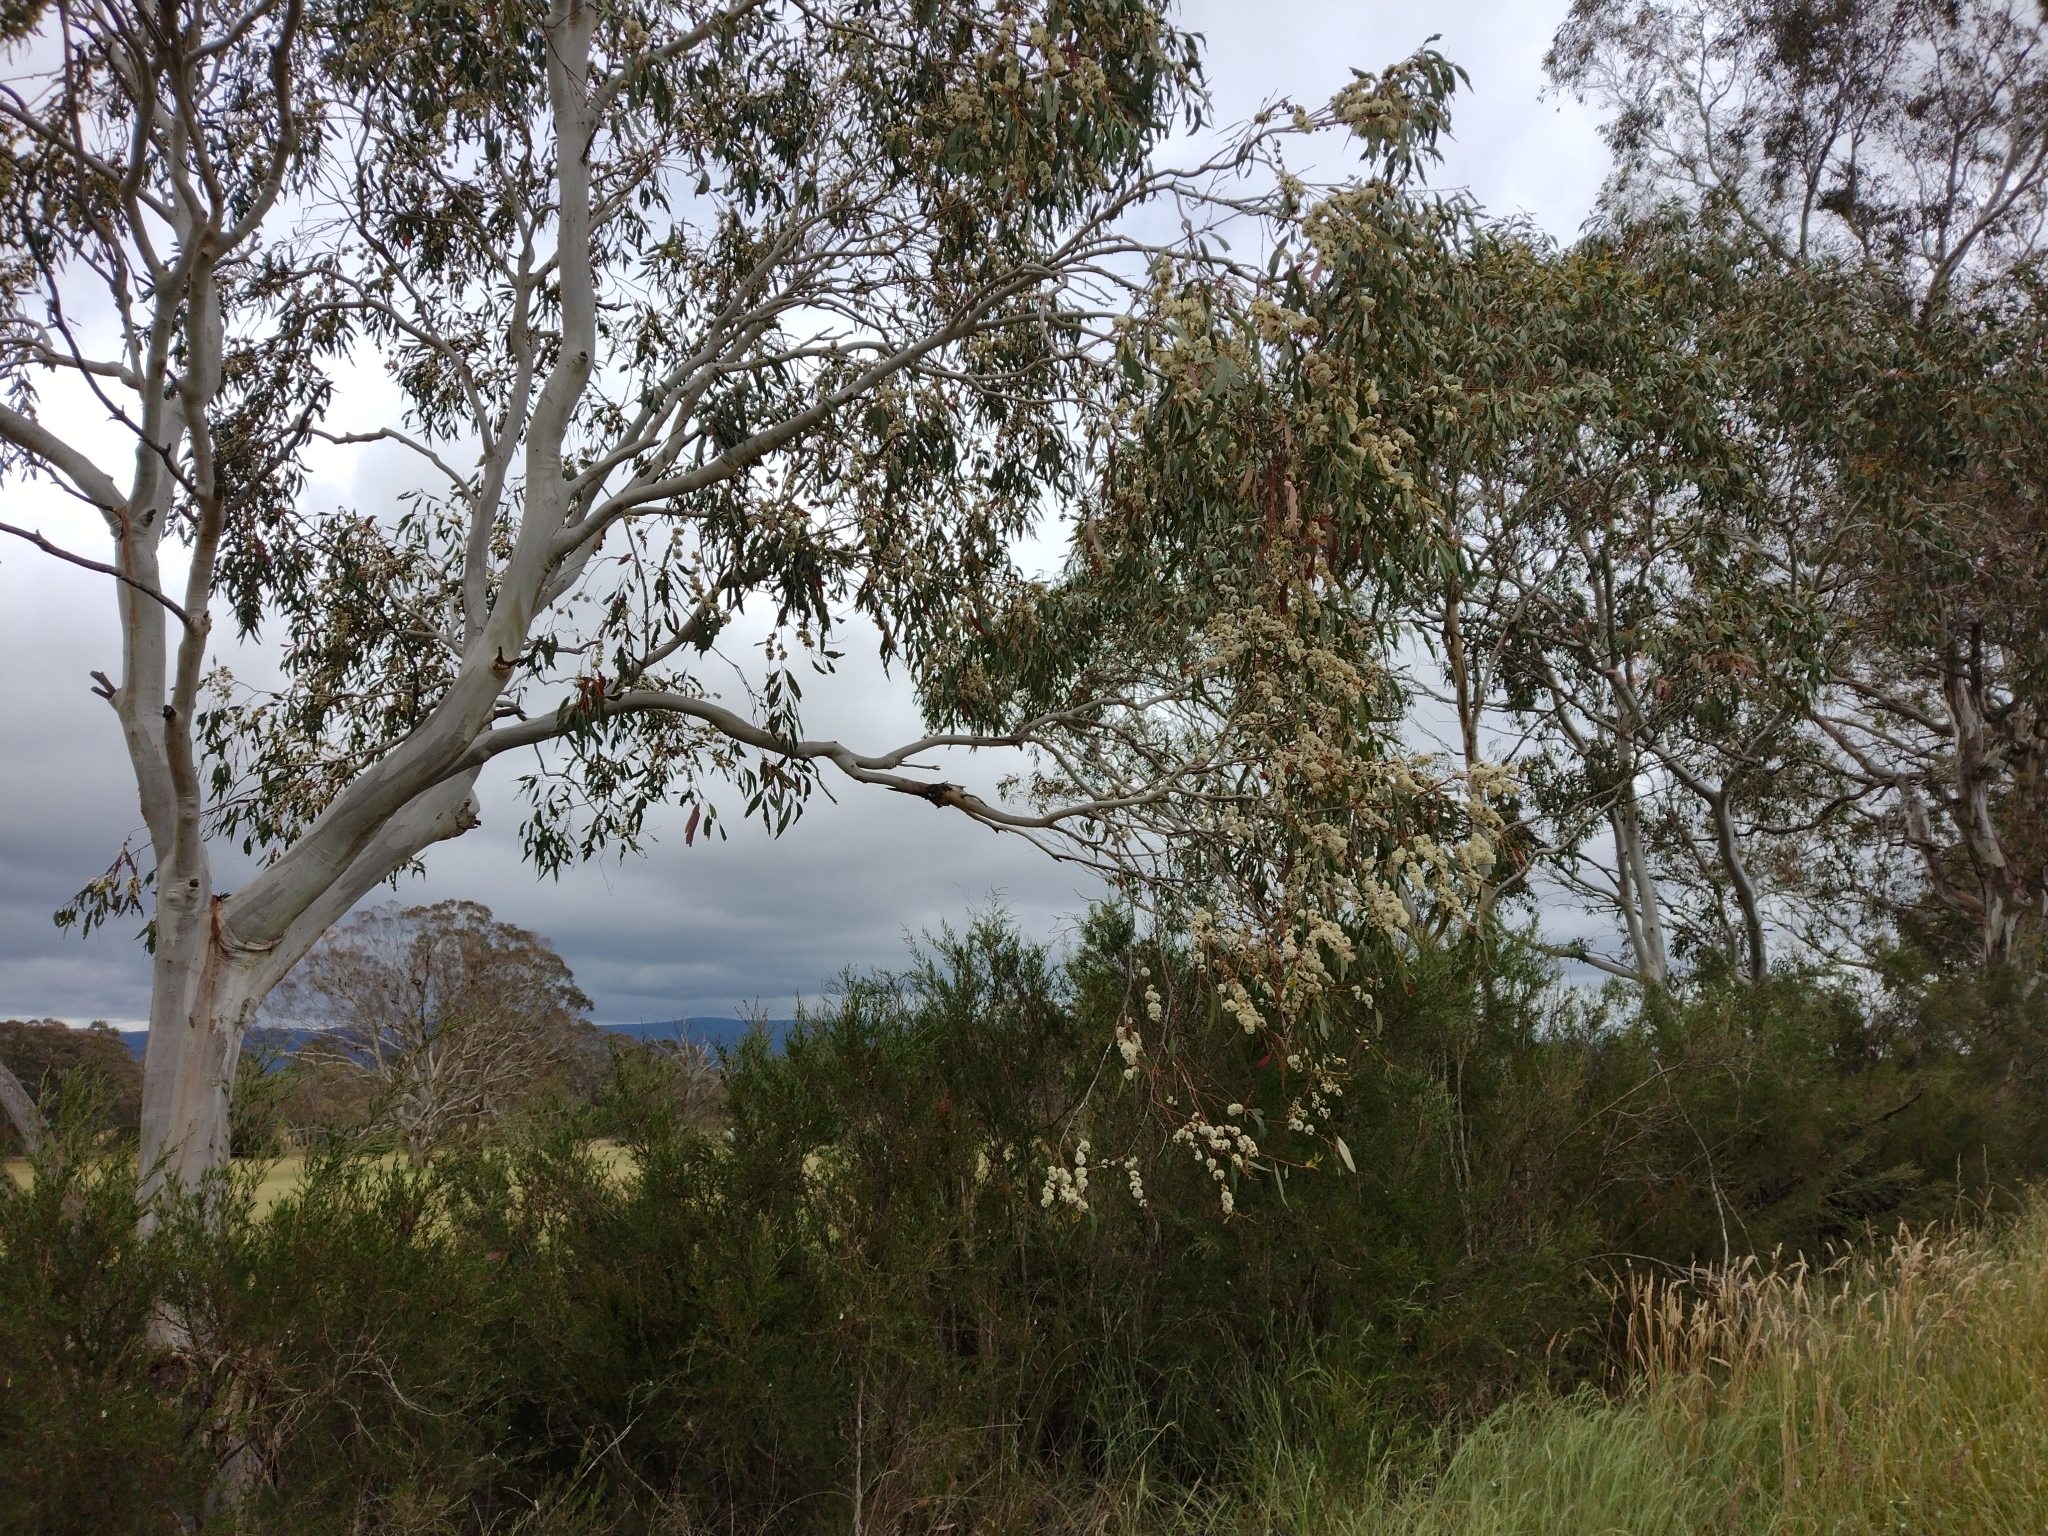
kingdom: Plantae
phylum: Tracheophyta
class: Magnoliopsida
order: Myrtales
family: Myrtaceae
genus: Eucalyptus
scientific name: Eucalyptus pauciflora
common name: Snow gum
